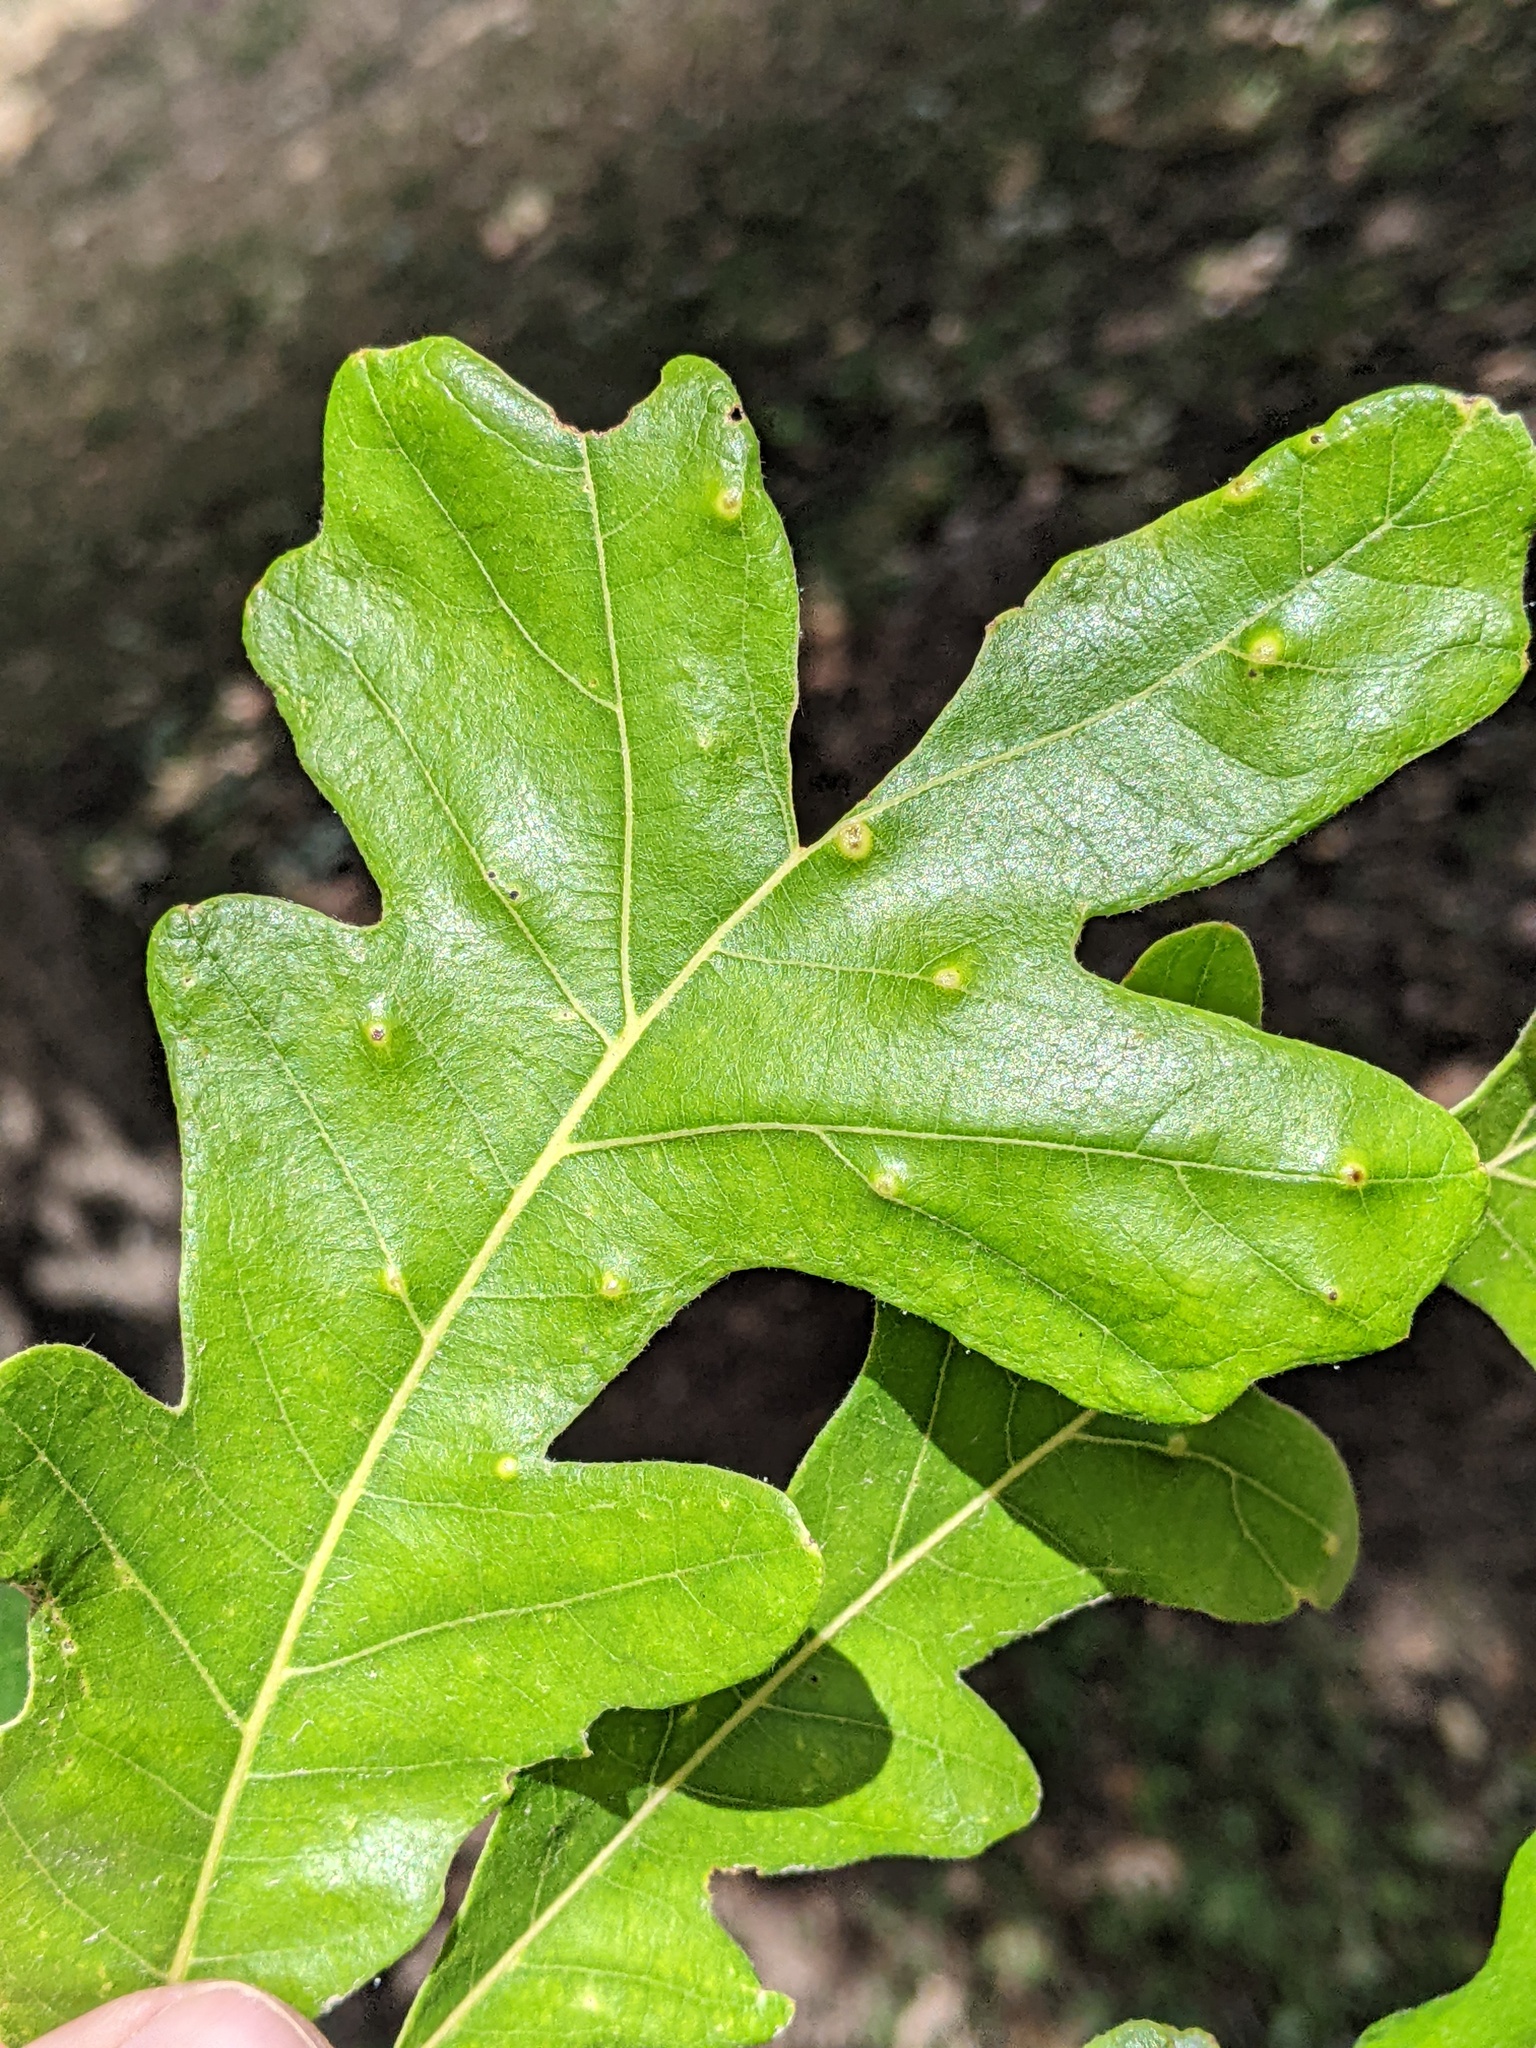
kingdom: Animalia
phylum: Arthropoda
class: Insecta
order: Hymenoptera
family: Cynipidae
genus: Neuroterus
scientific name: Neuroterus quercusverrucarum
